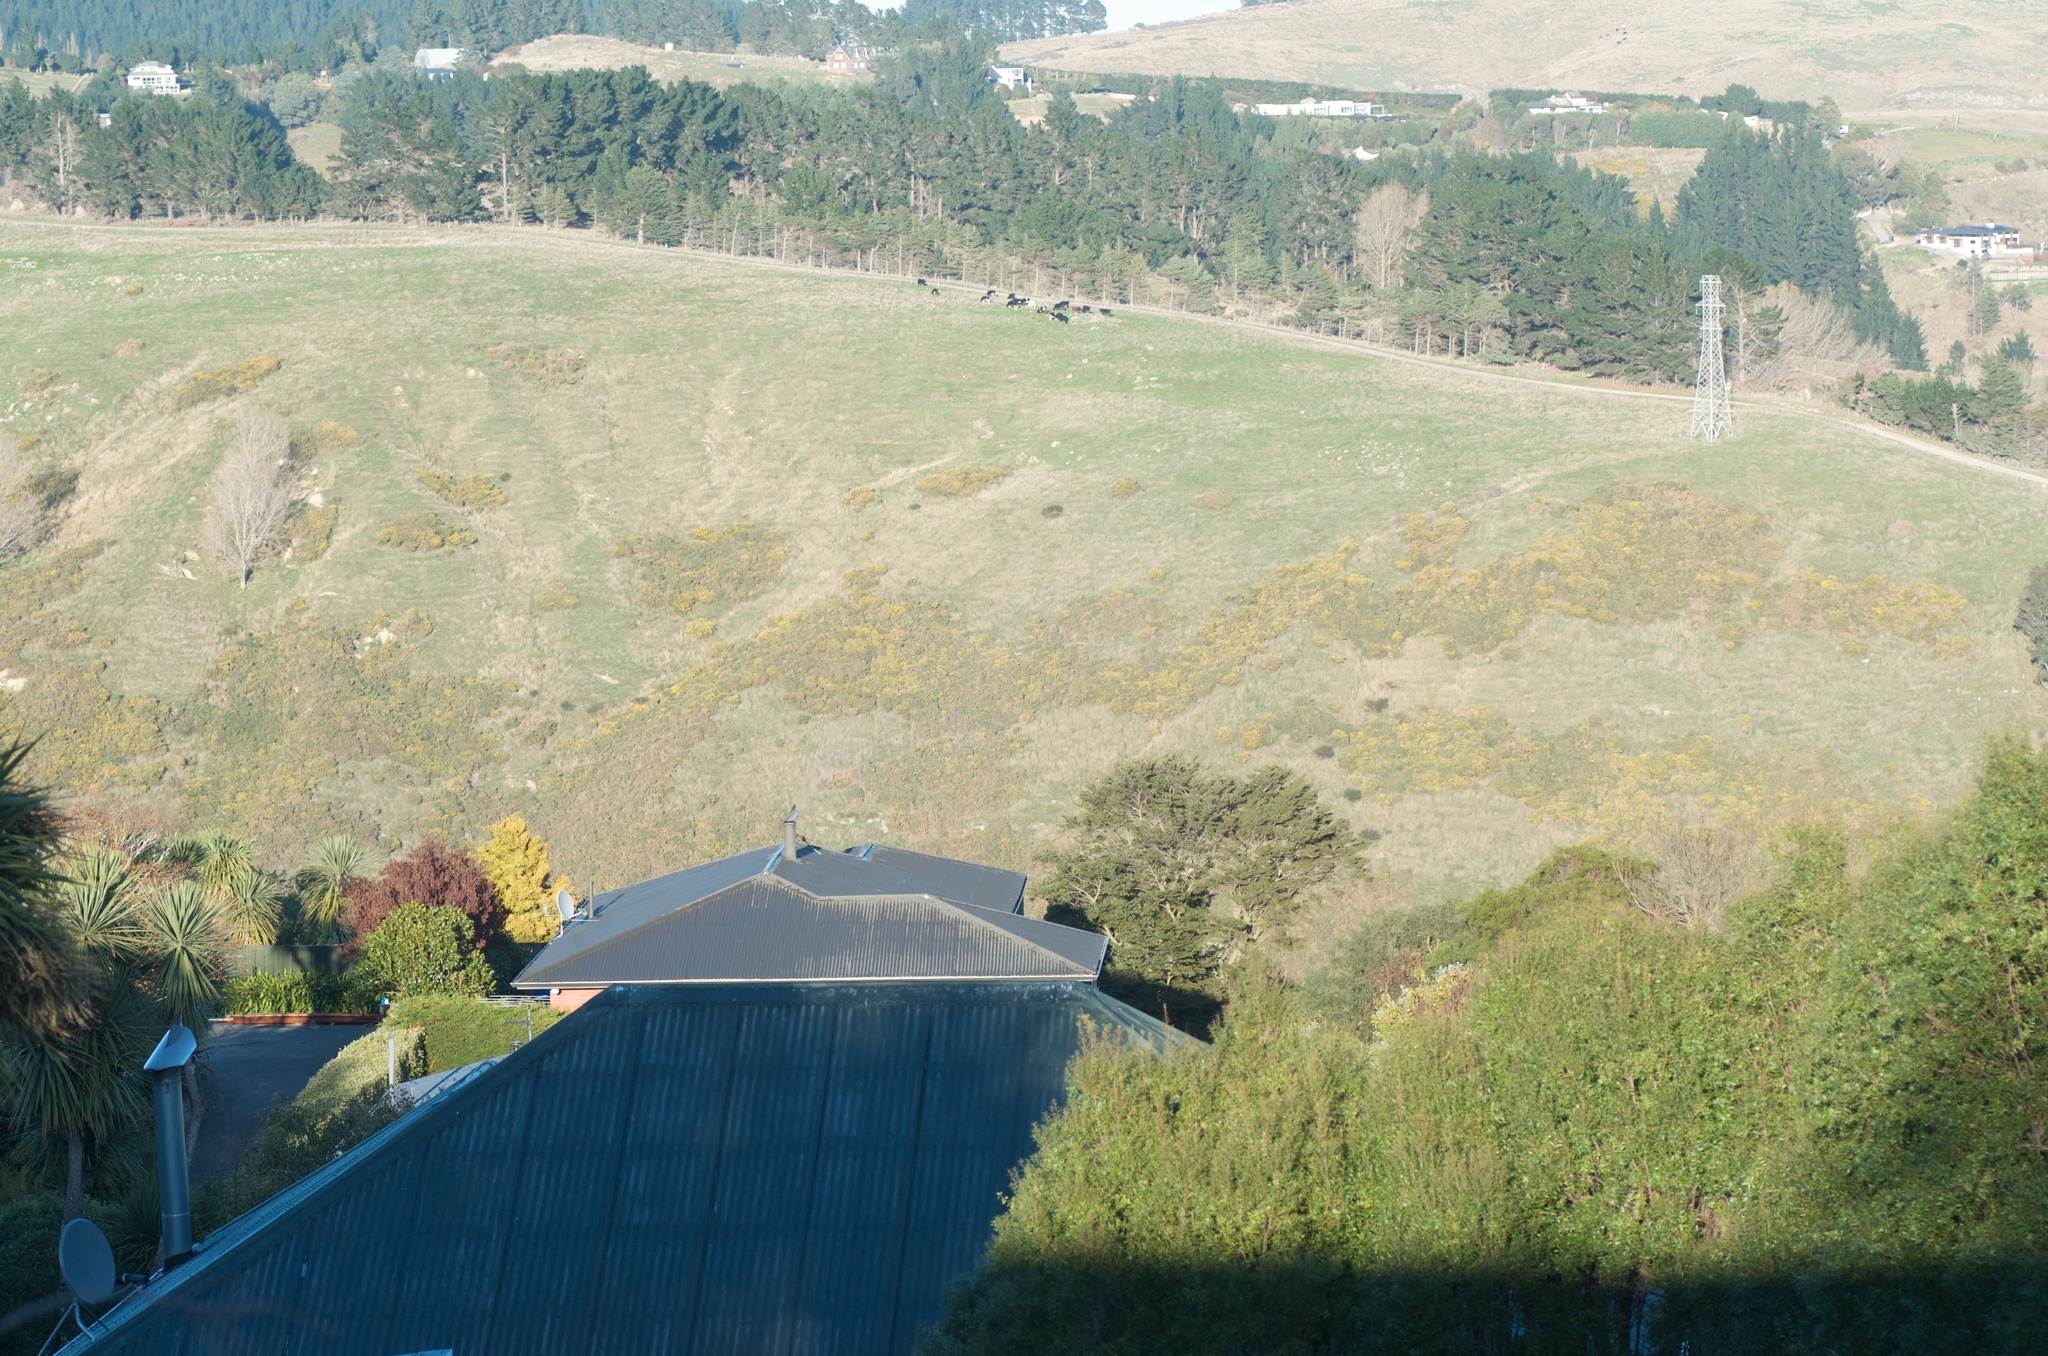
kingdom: Plantae
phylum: Tracheophyta
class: Magnoliopsida
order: Fabales
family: Fabaceae
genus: Ulex
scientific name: Ulex europaeus
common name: Common gorse
